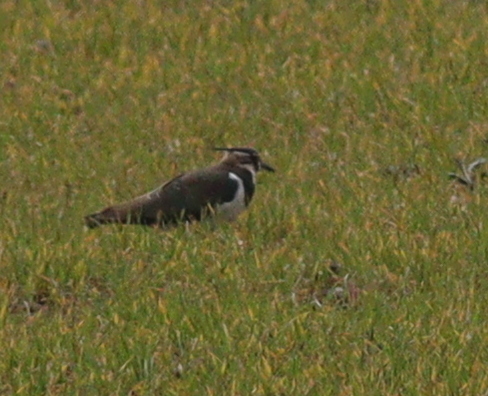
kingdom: Animalia
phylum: Chordata
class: Aves
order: Charadriiformes
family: Charadriidae
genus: Vanellus
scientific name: Vanellus vanellus
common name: Northern lapwing
